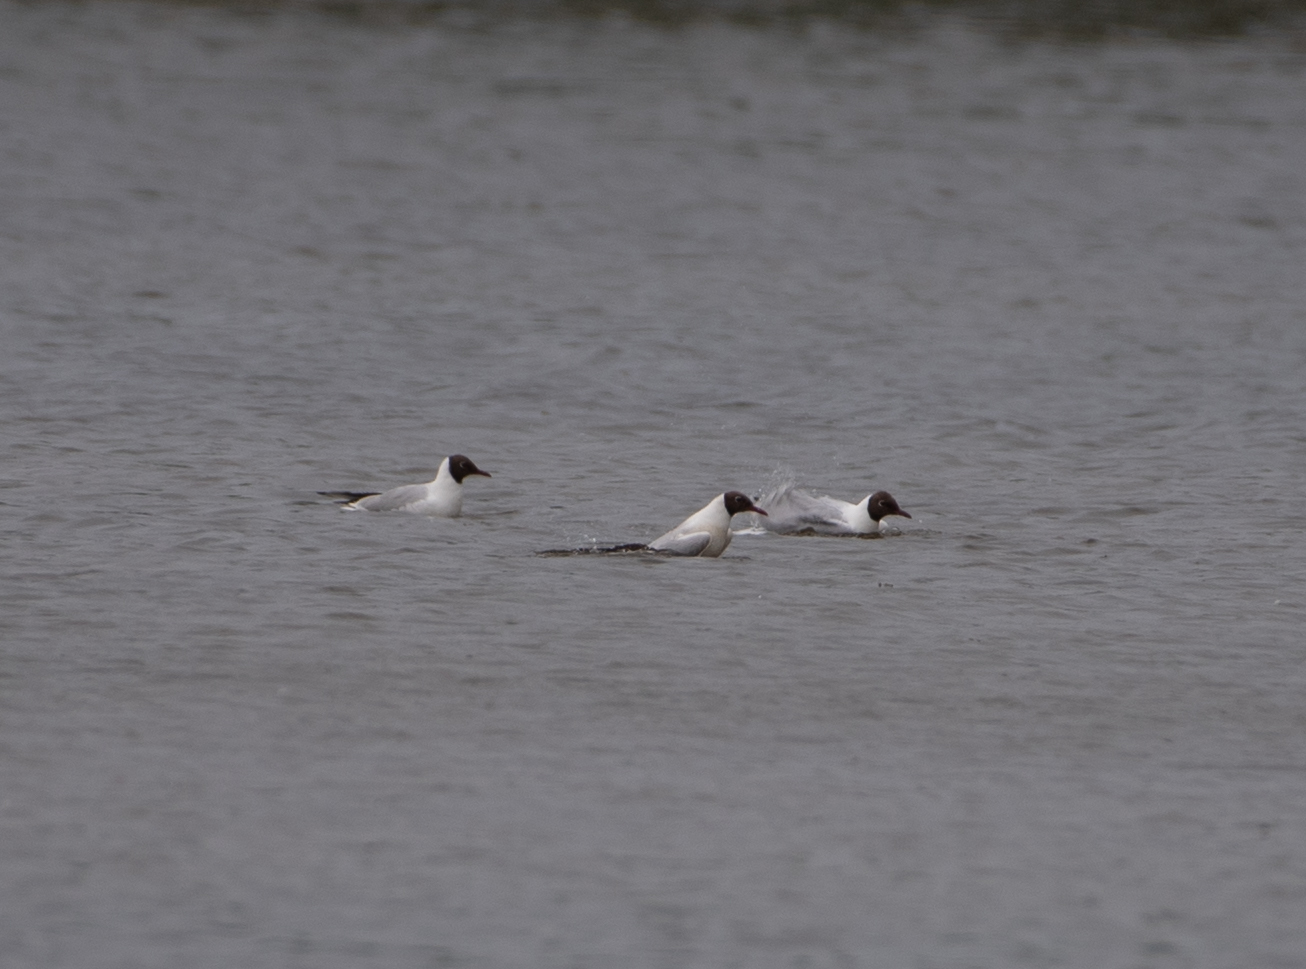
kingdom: Animalia
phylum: Chordata
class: Aves
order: Charadriiformes
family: Laridae
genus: Chroicocephalus
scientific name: Chroicocephalus ridibundus
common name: Black-headed gull
